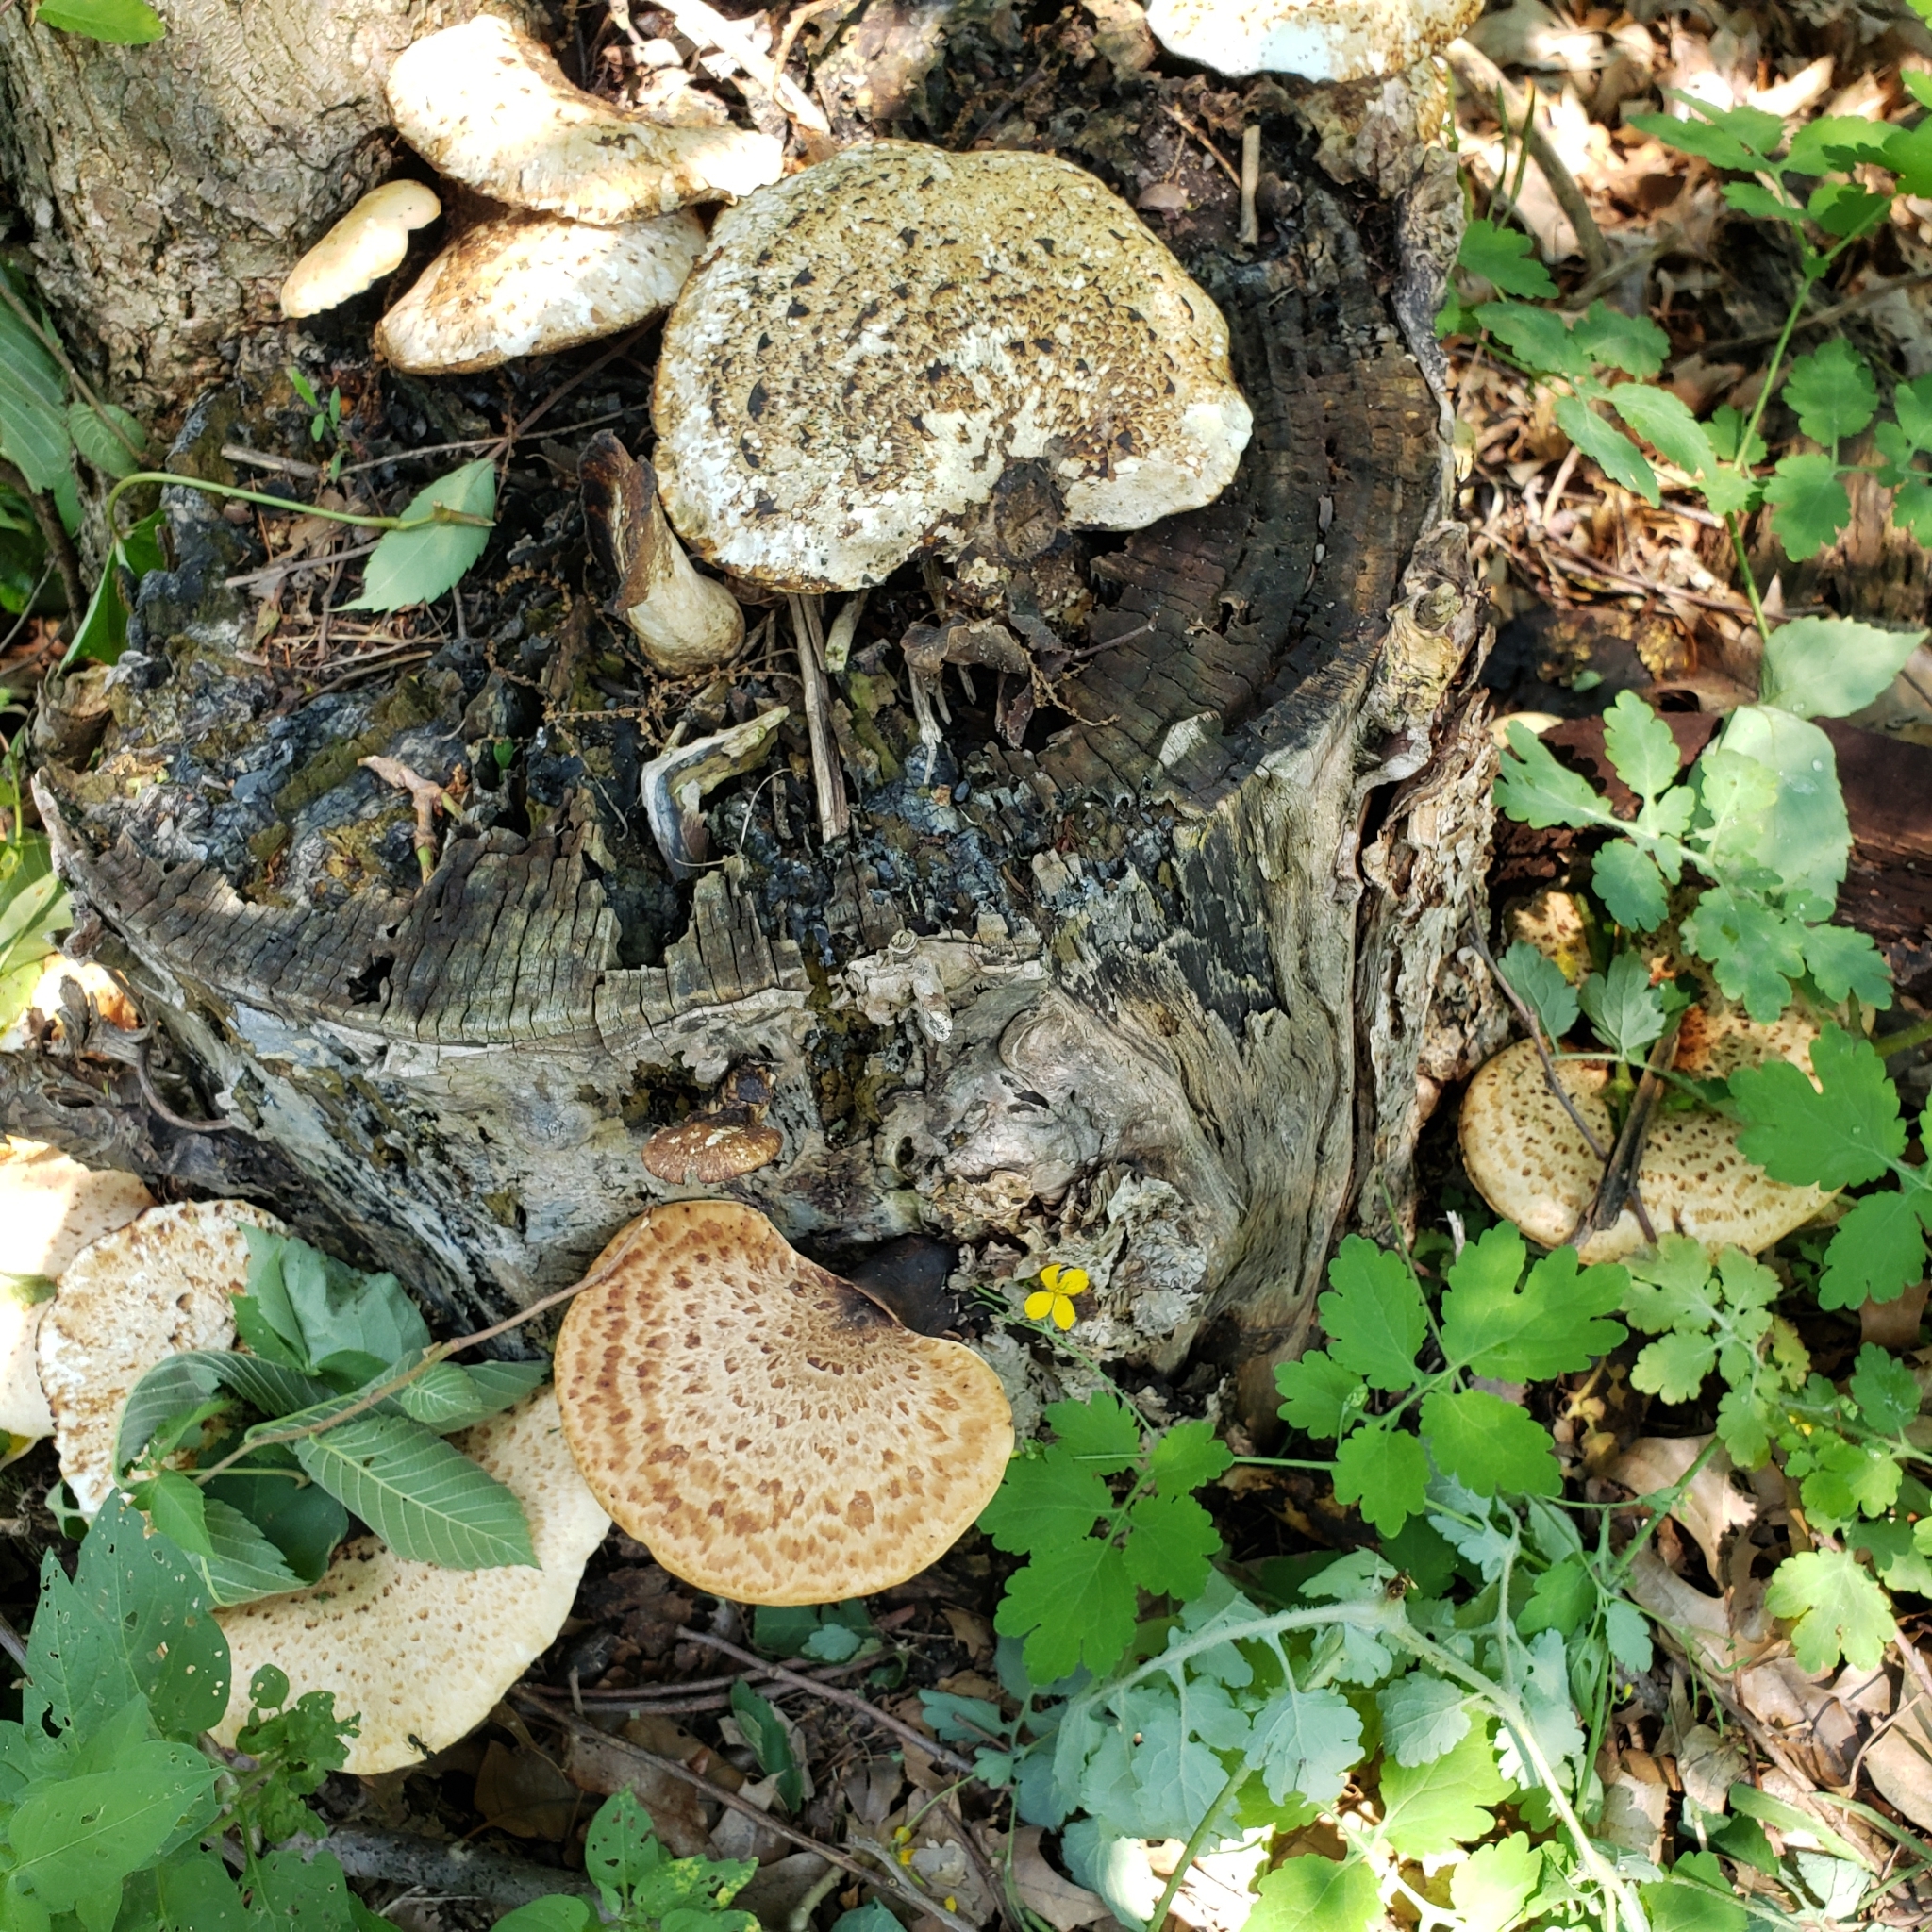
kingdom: Fungi
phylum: Basidiomycota
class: Agaricomycetes
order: Polyporales
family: Polyporaceae
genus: Cerioporus
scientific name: Cerioporus squamosus
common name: Dryad's saddle
